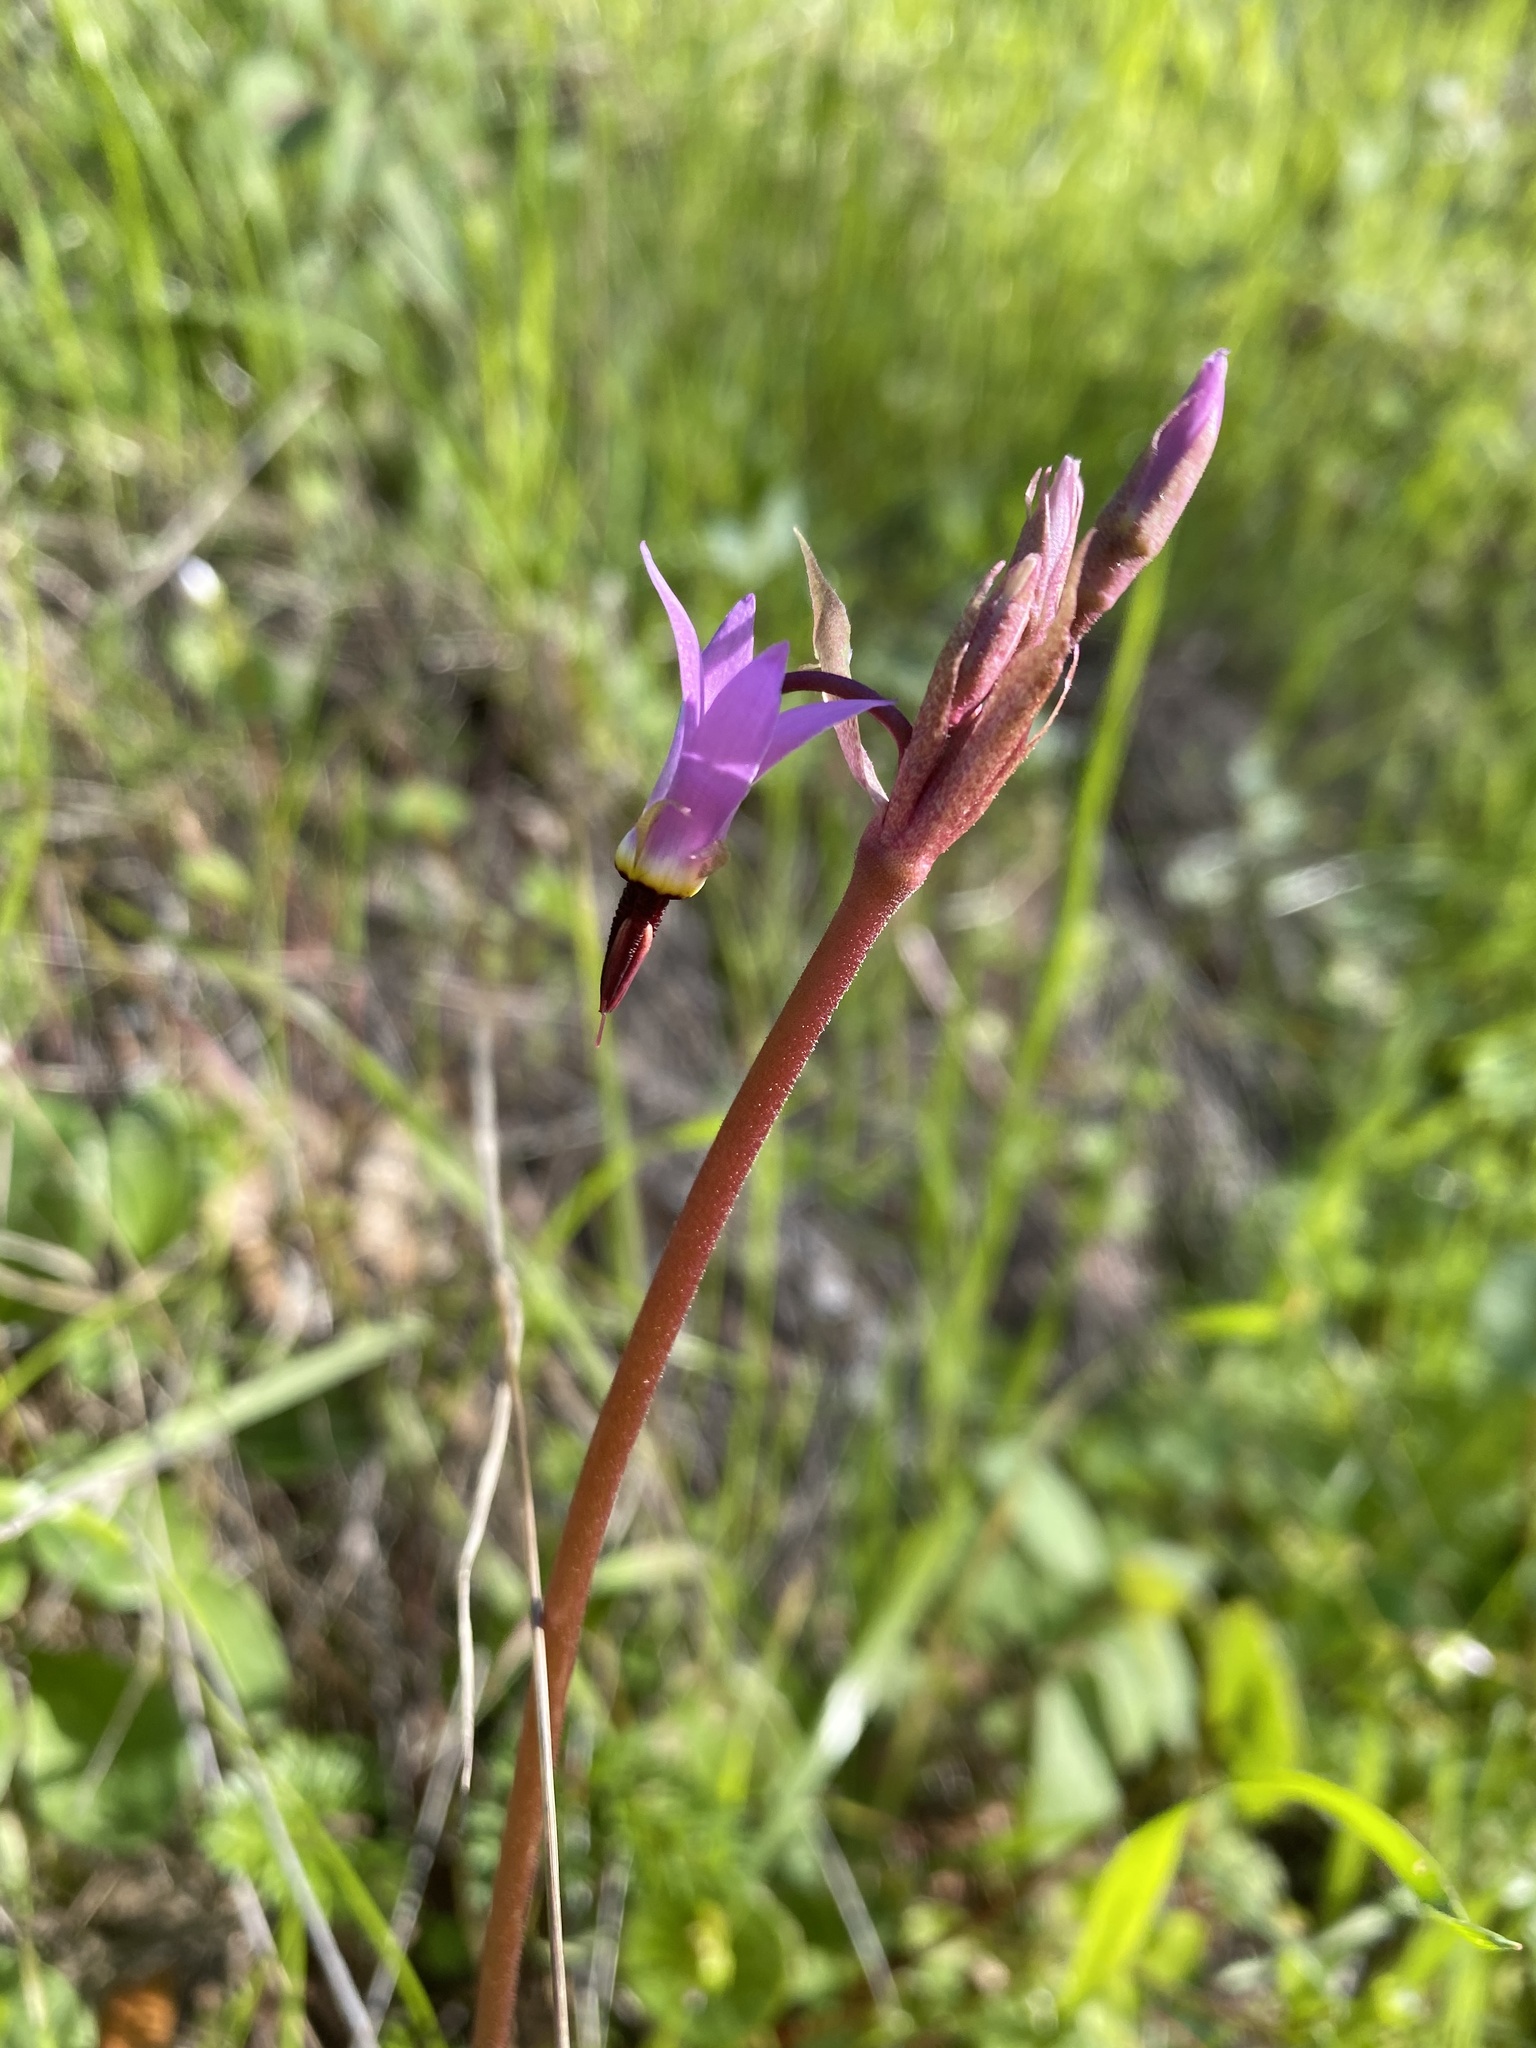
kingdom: Plantae
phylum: Tracheophyta
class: Magnoliopsida
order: Ericales
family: Primulaceae
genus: Dodecatheon
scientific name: Dodecatheon hendersonii
